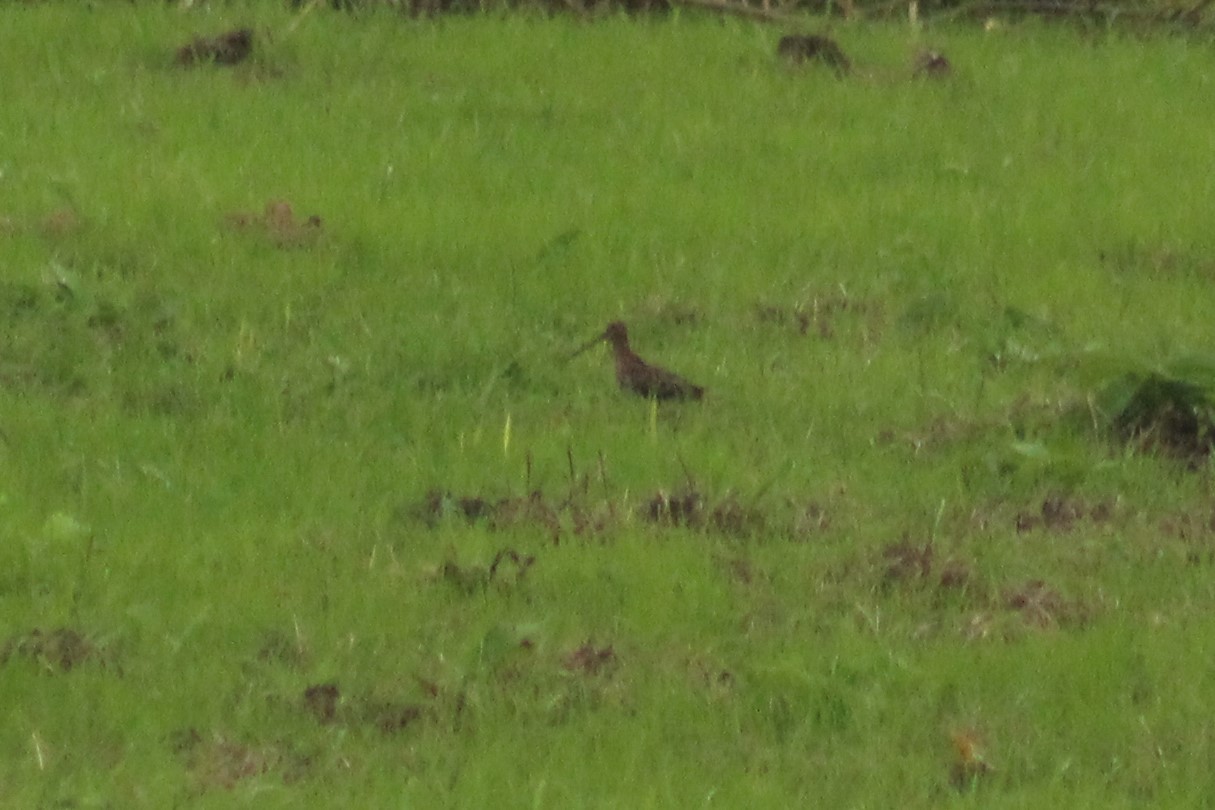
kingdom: Animalia
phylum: Chordata
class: Aves
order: Charadriiformes
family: Scolopacidae
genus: Gallinago
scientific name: Gallinago gallinago
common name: Common snipe
